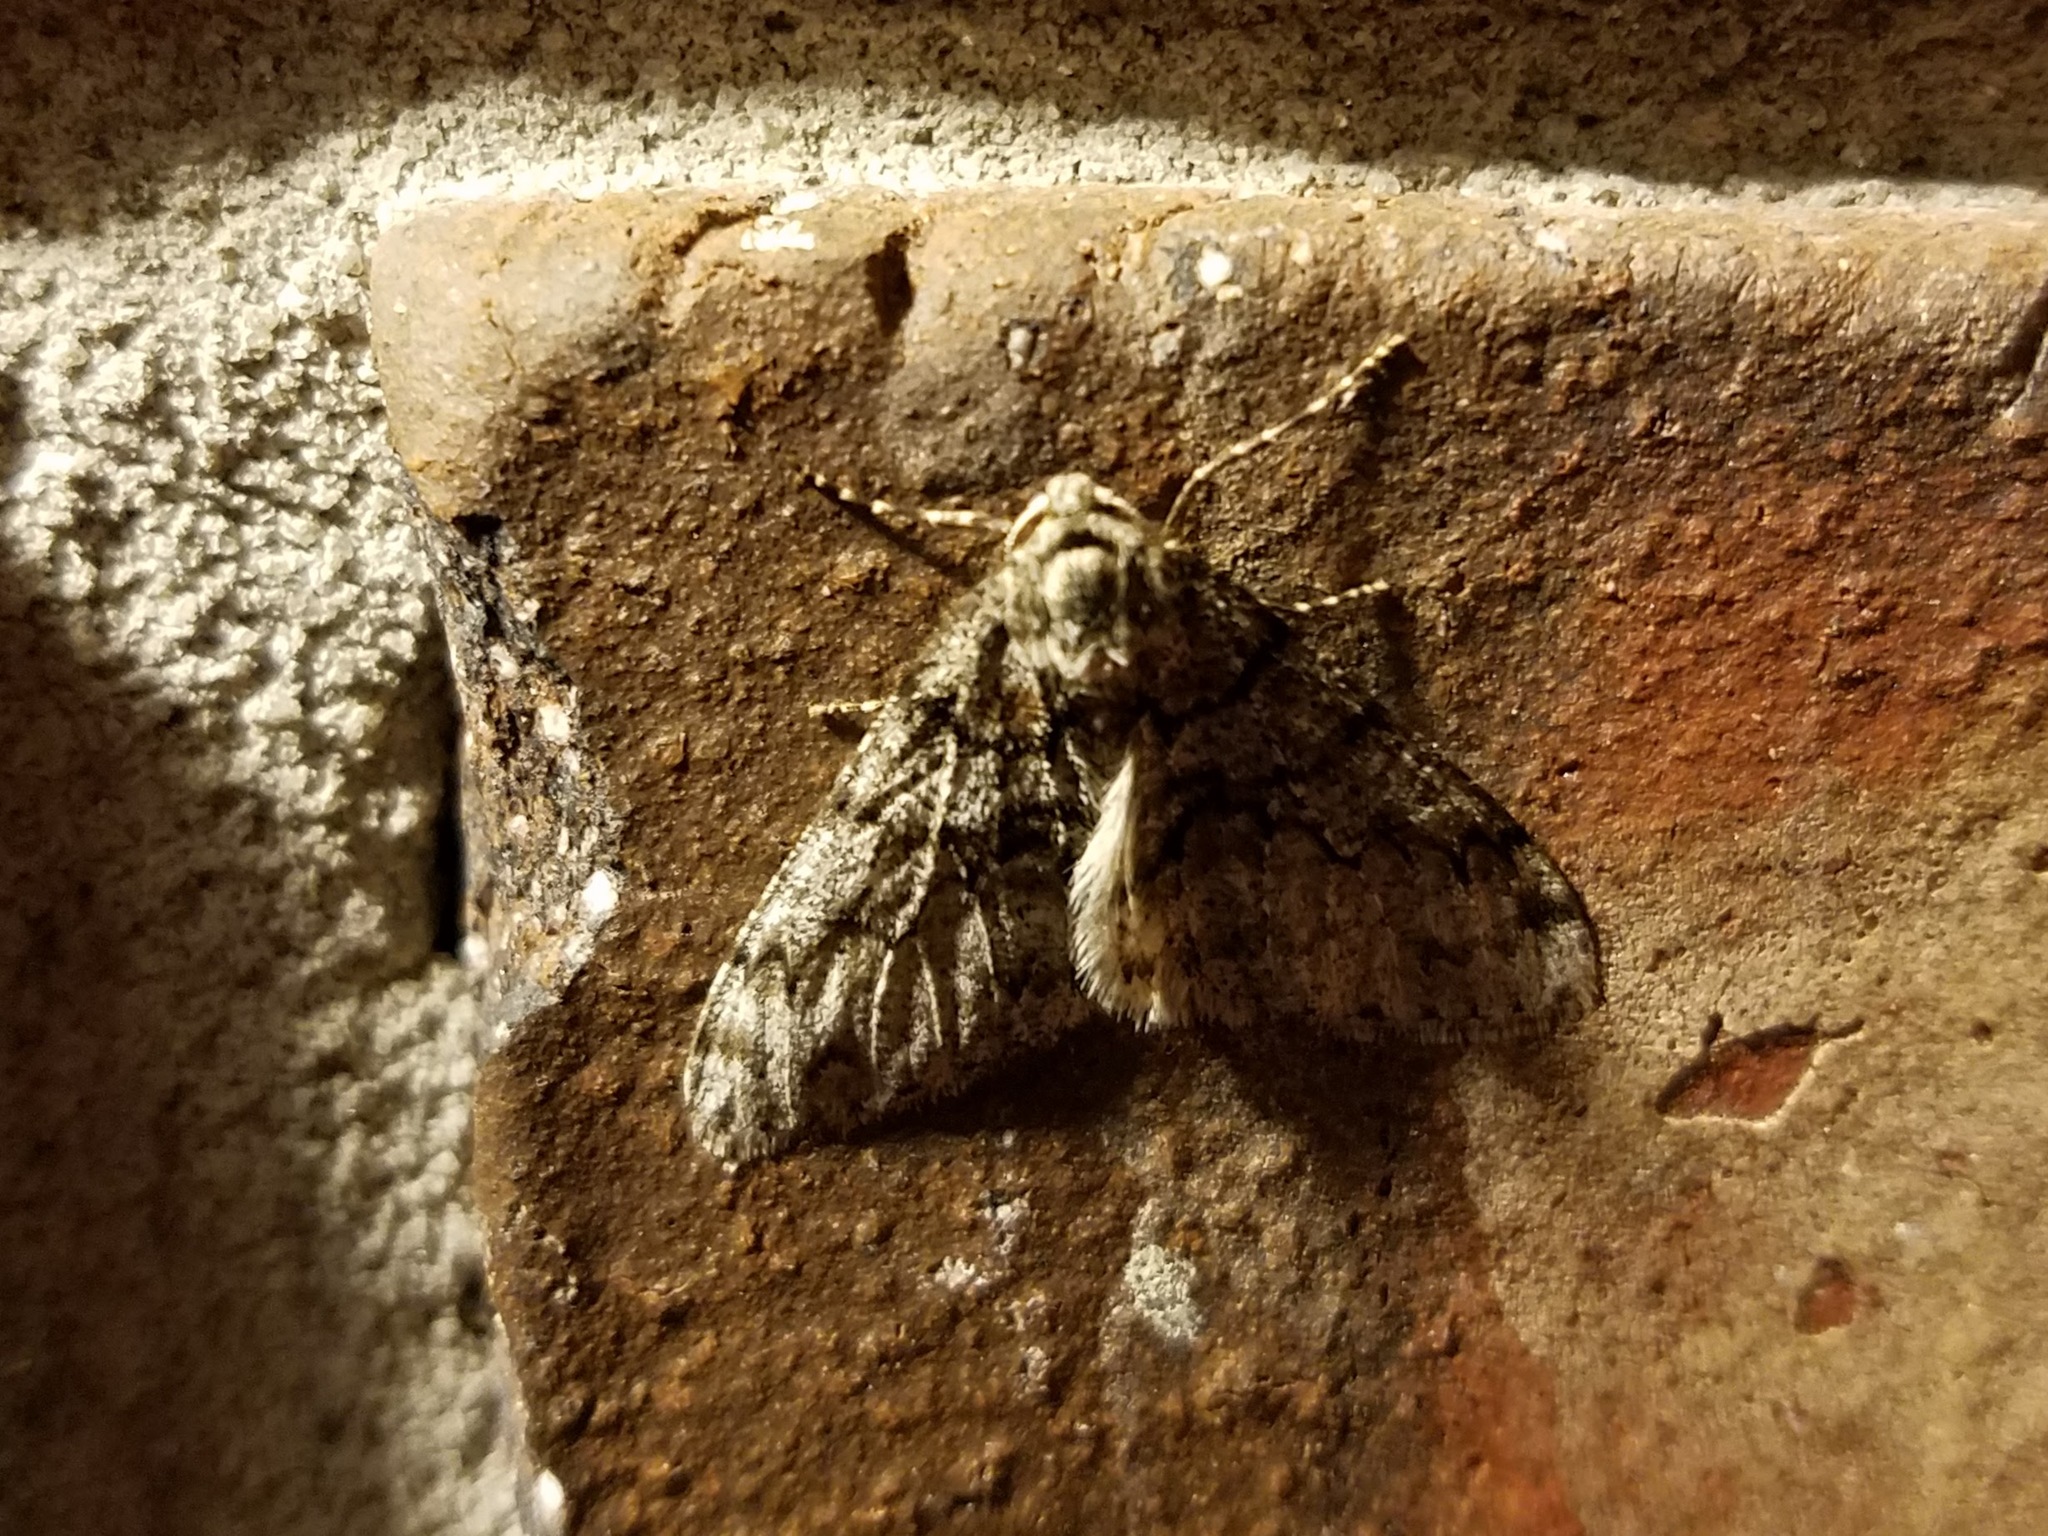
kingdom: Animalia
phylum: Arthropoda
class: Insecta
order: Lepidoptera
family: Geometridae
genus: Phigalia
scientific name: Phigalia denticulata
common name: Toothed phigalia
